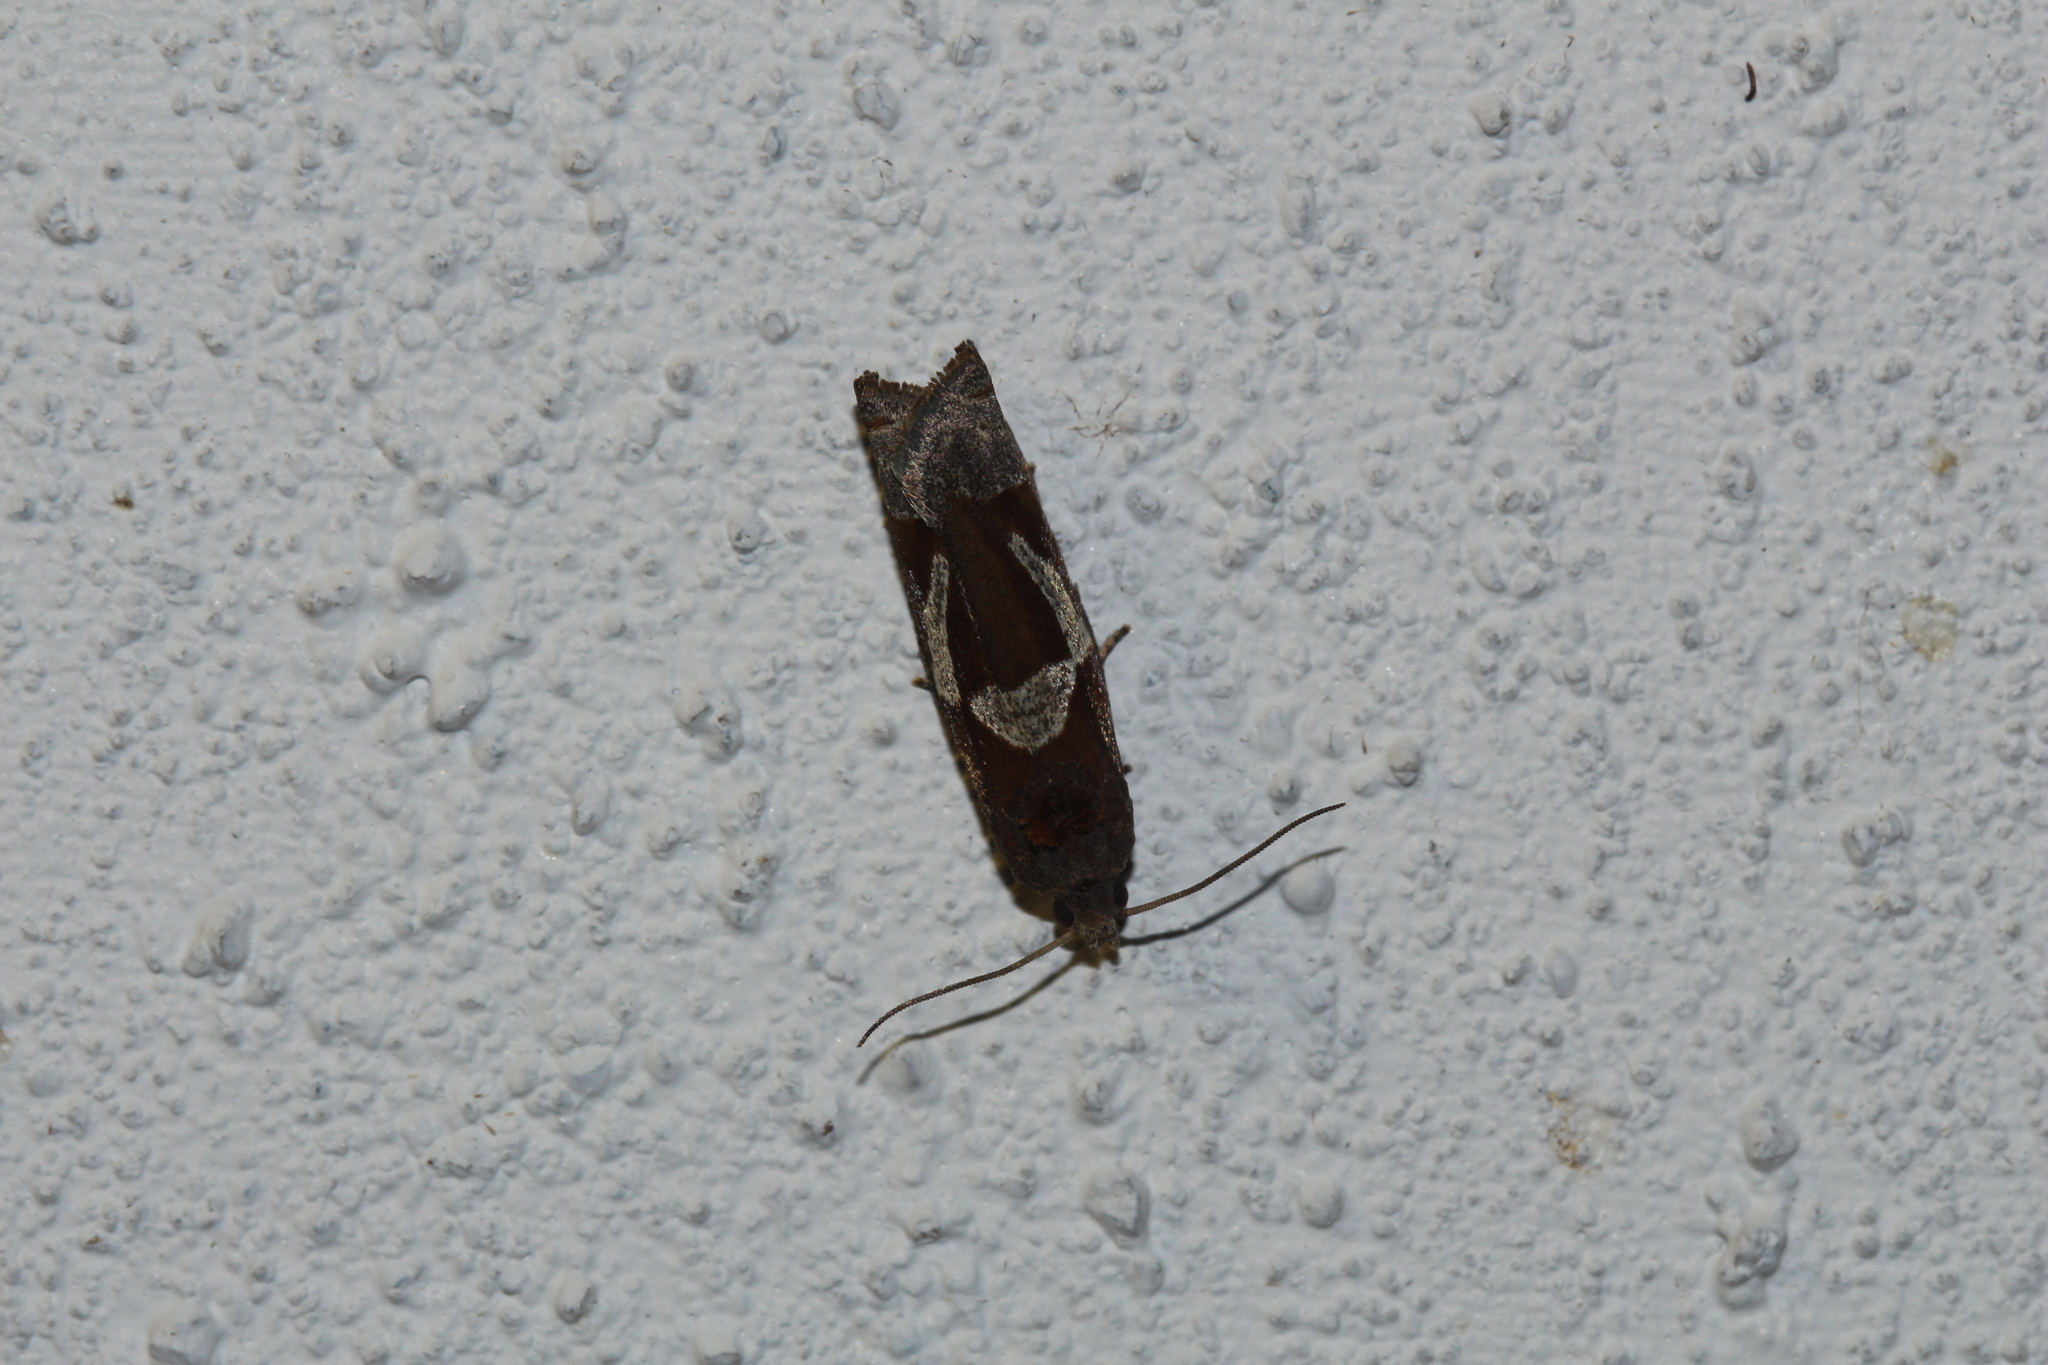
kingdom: Animalia
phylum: Arthropoda
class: Insecta
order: Lepidoptera
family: Tortricidae
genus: Epiblema
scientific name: Epiblema foenella
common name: White-foot bell
